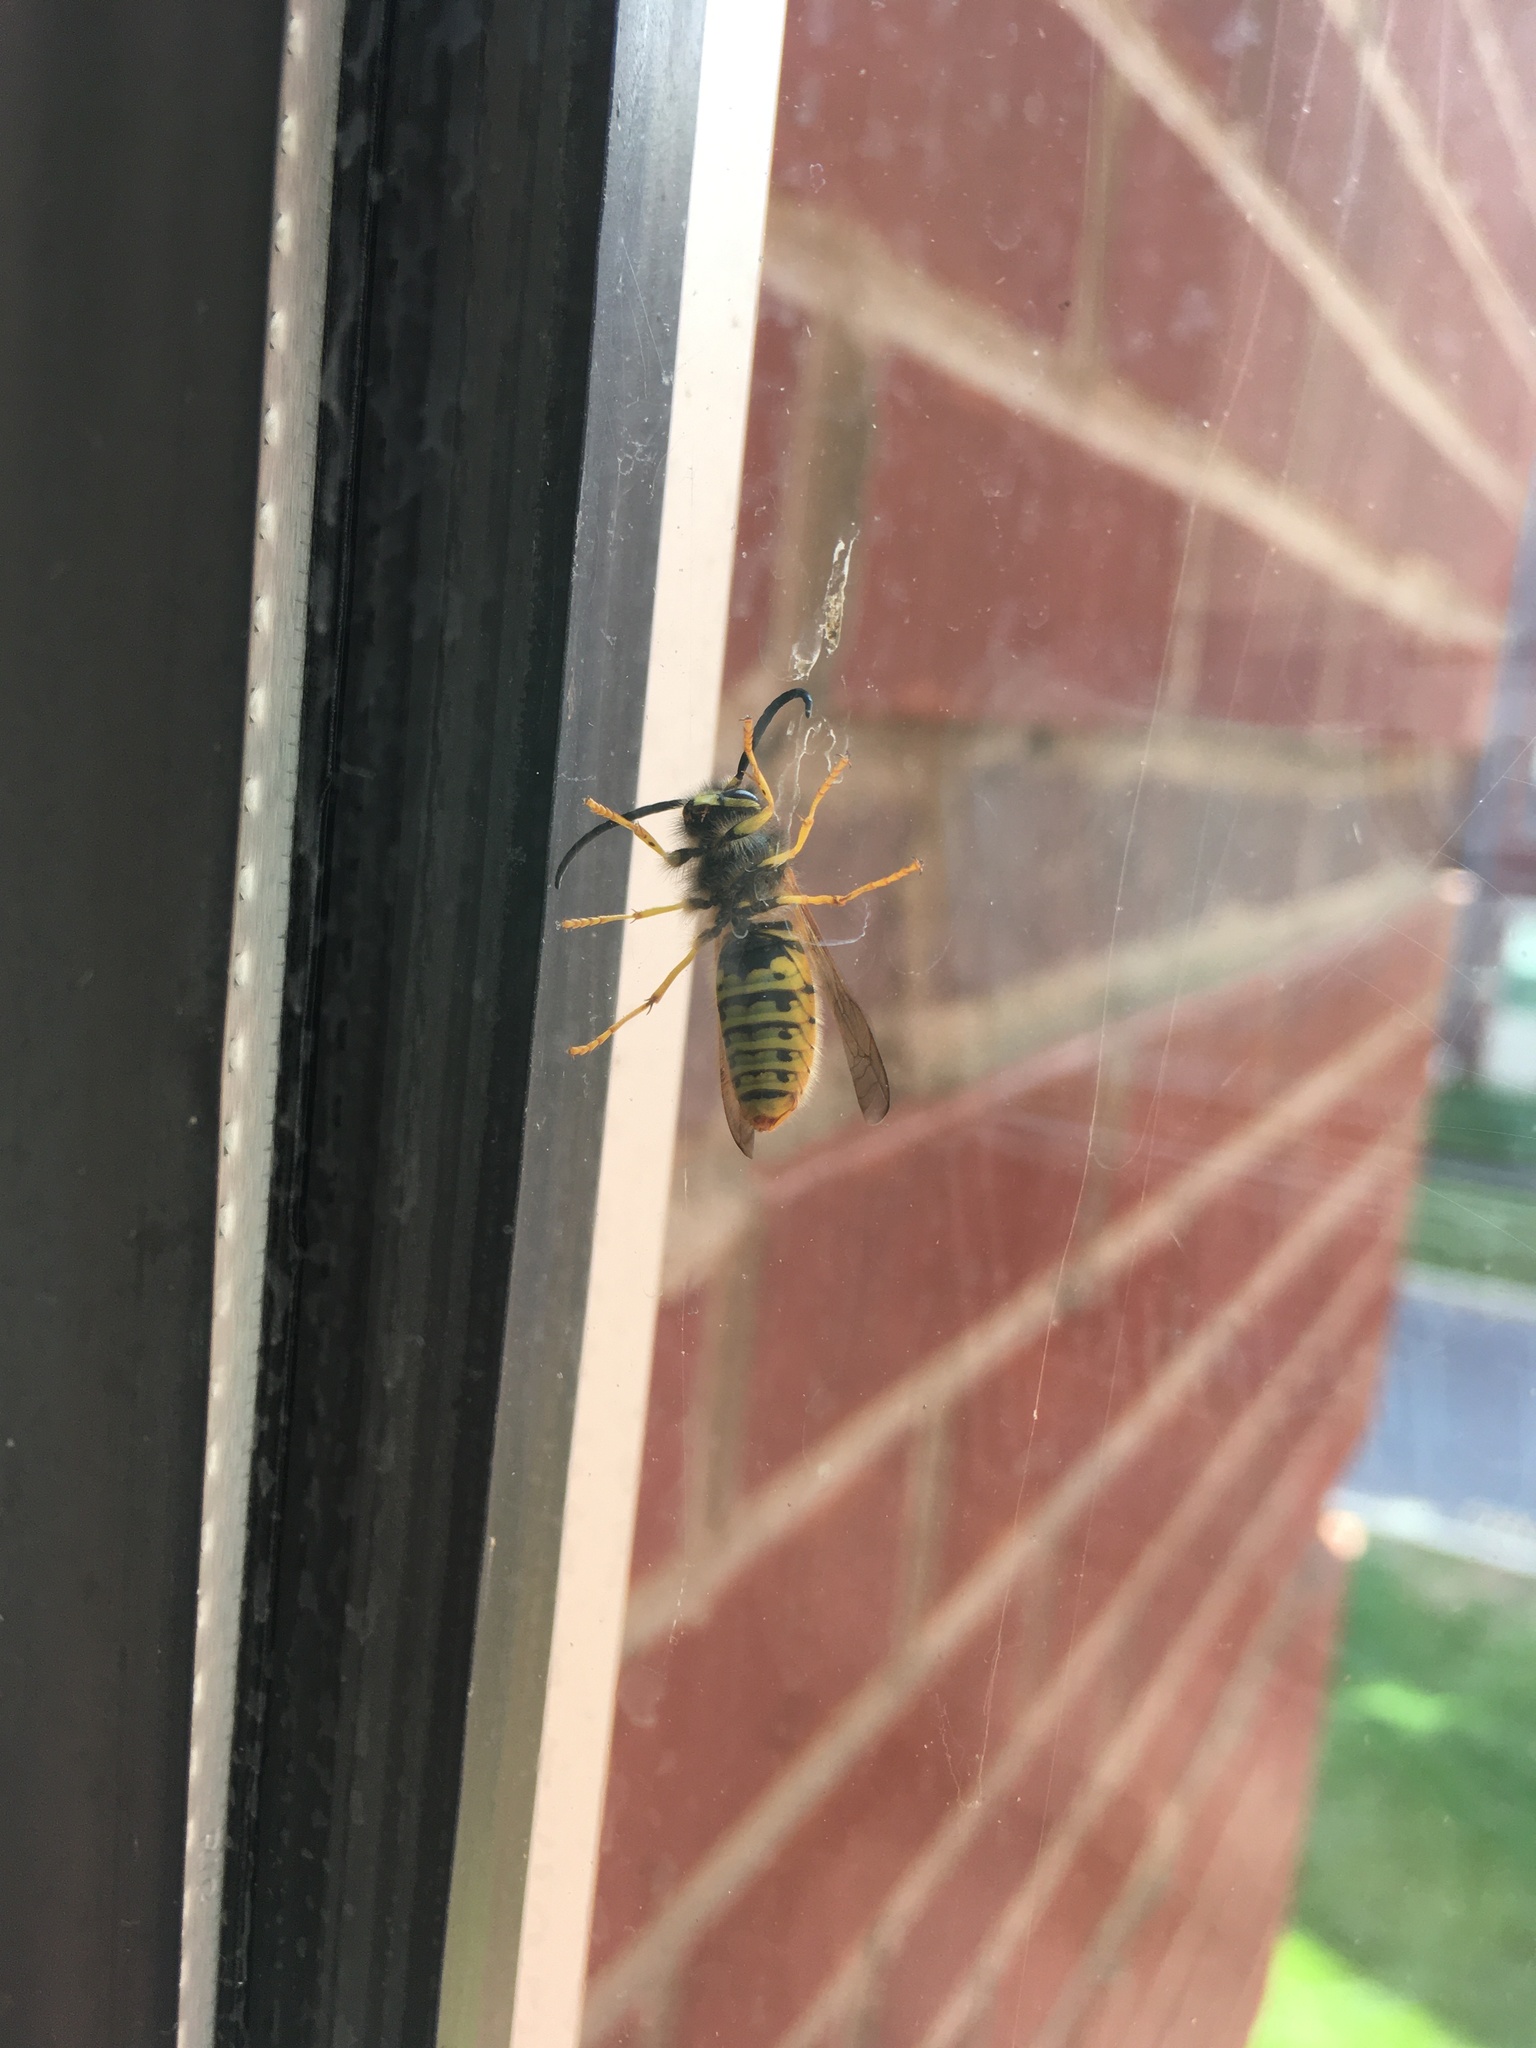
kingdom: Animalia
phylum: Arthropoda
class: Insecta
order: Hymenoptera
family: Vespidae
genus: Vespula
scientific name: Vespula germanica
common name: German wasp
